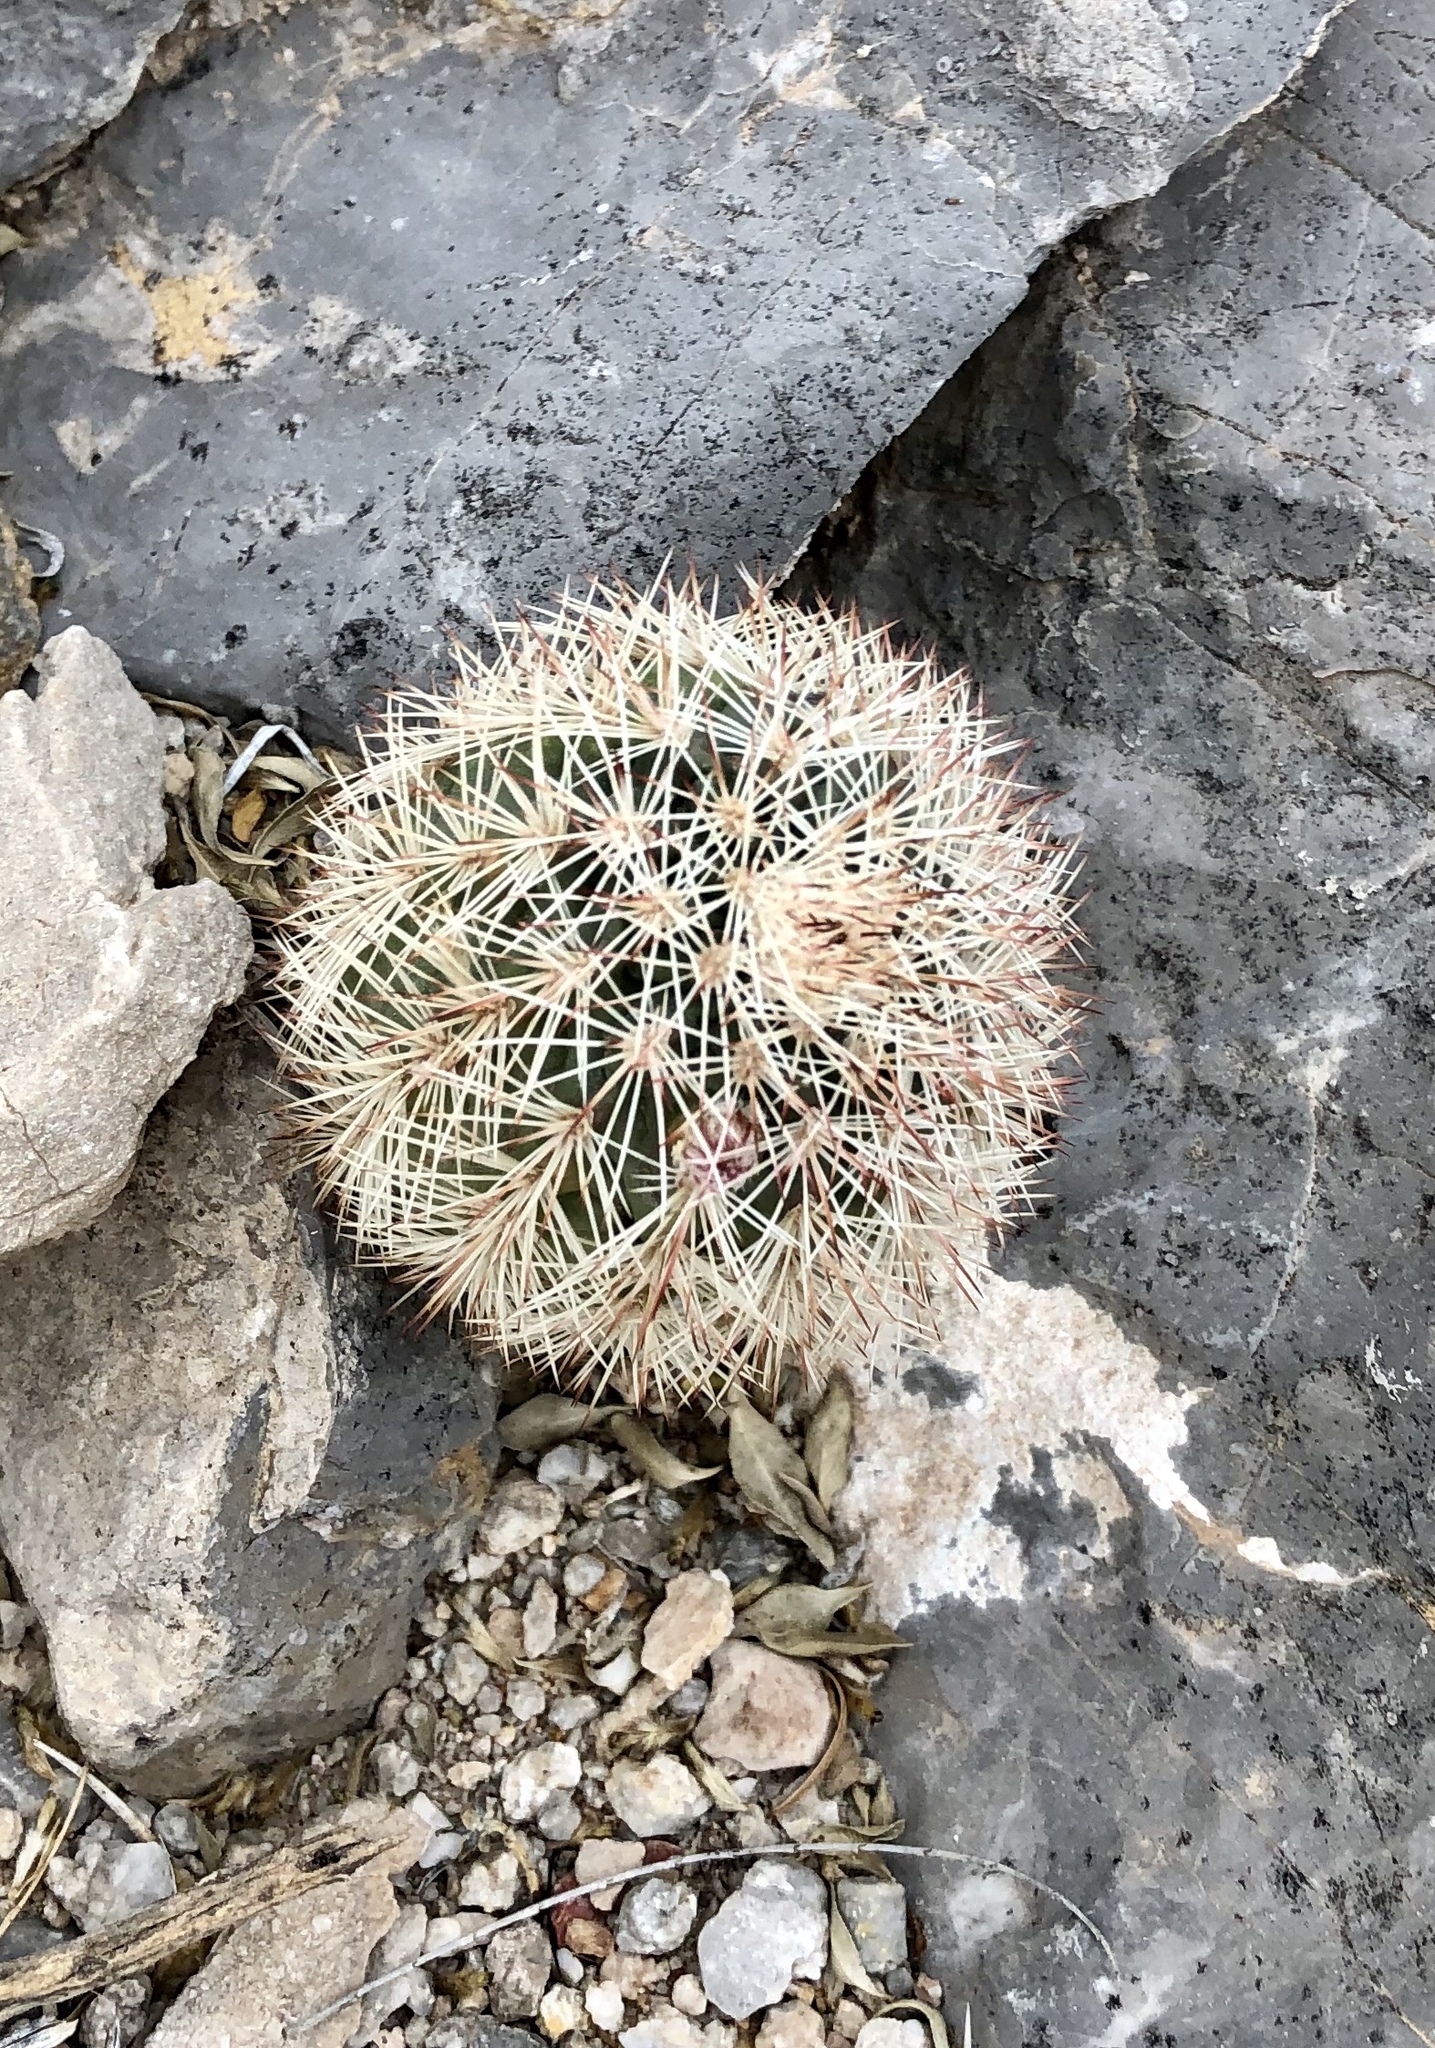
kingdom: Plantae
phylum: Tracheophyta
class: Magnoliopsida
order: Caryophyllales
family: Cactaceae
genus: Echinocereus
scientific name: Echinocereus dasyacanthus
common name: Spiny hedgehog cactus
